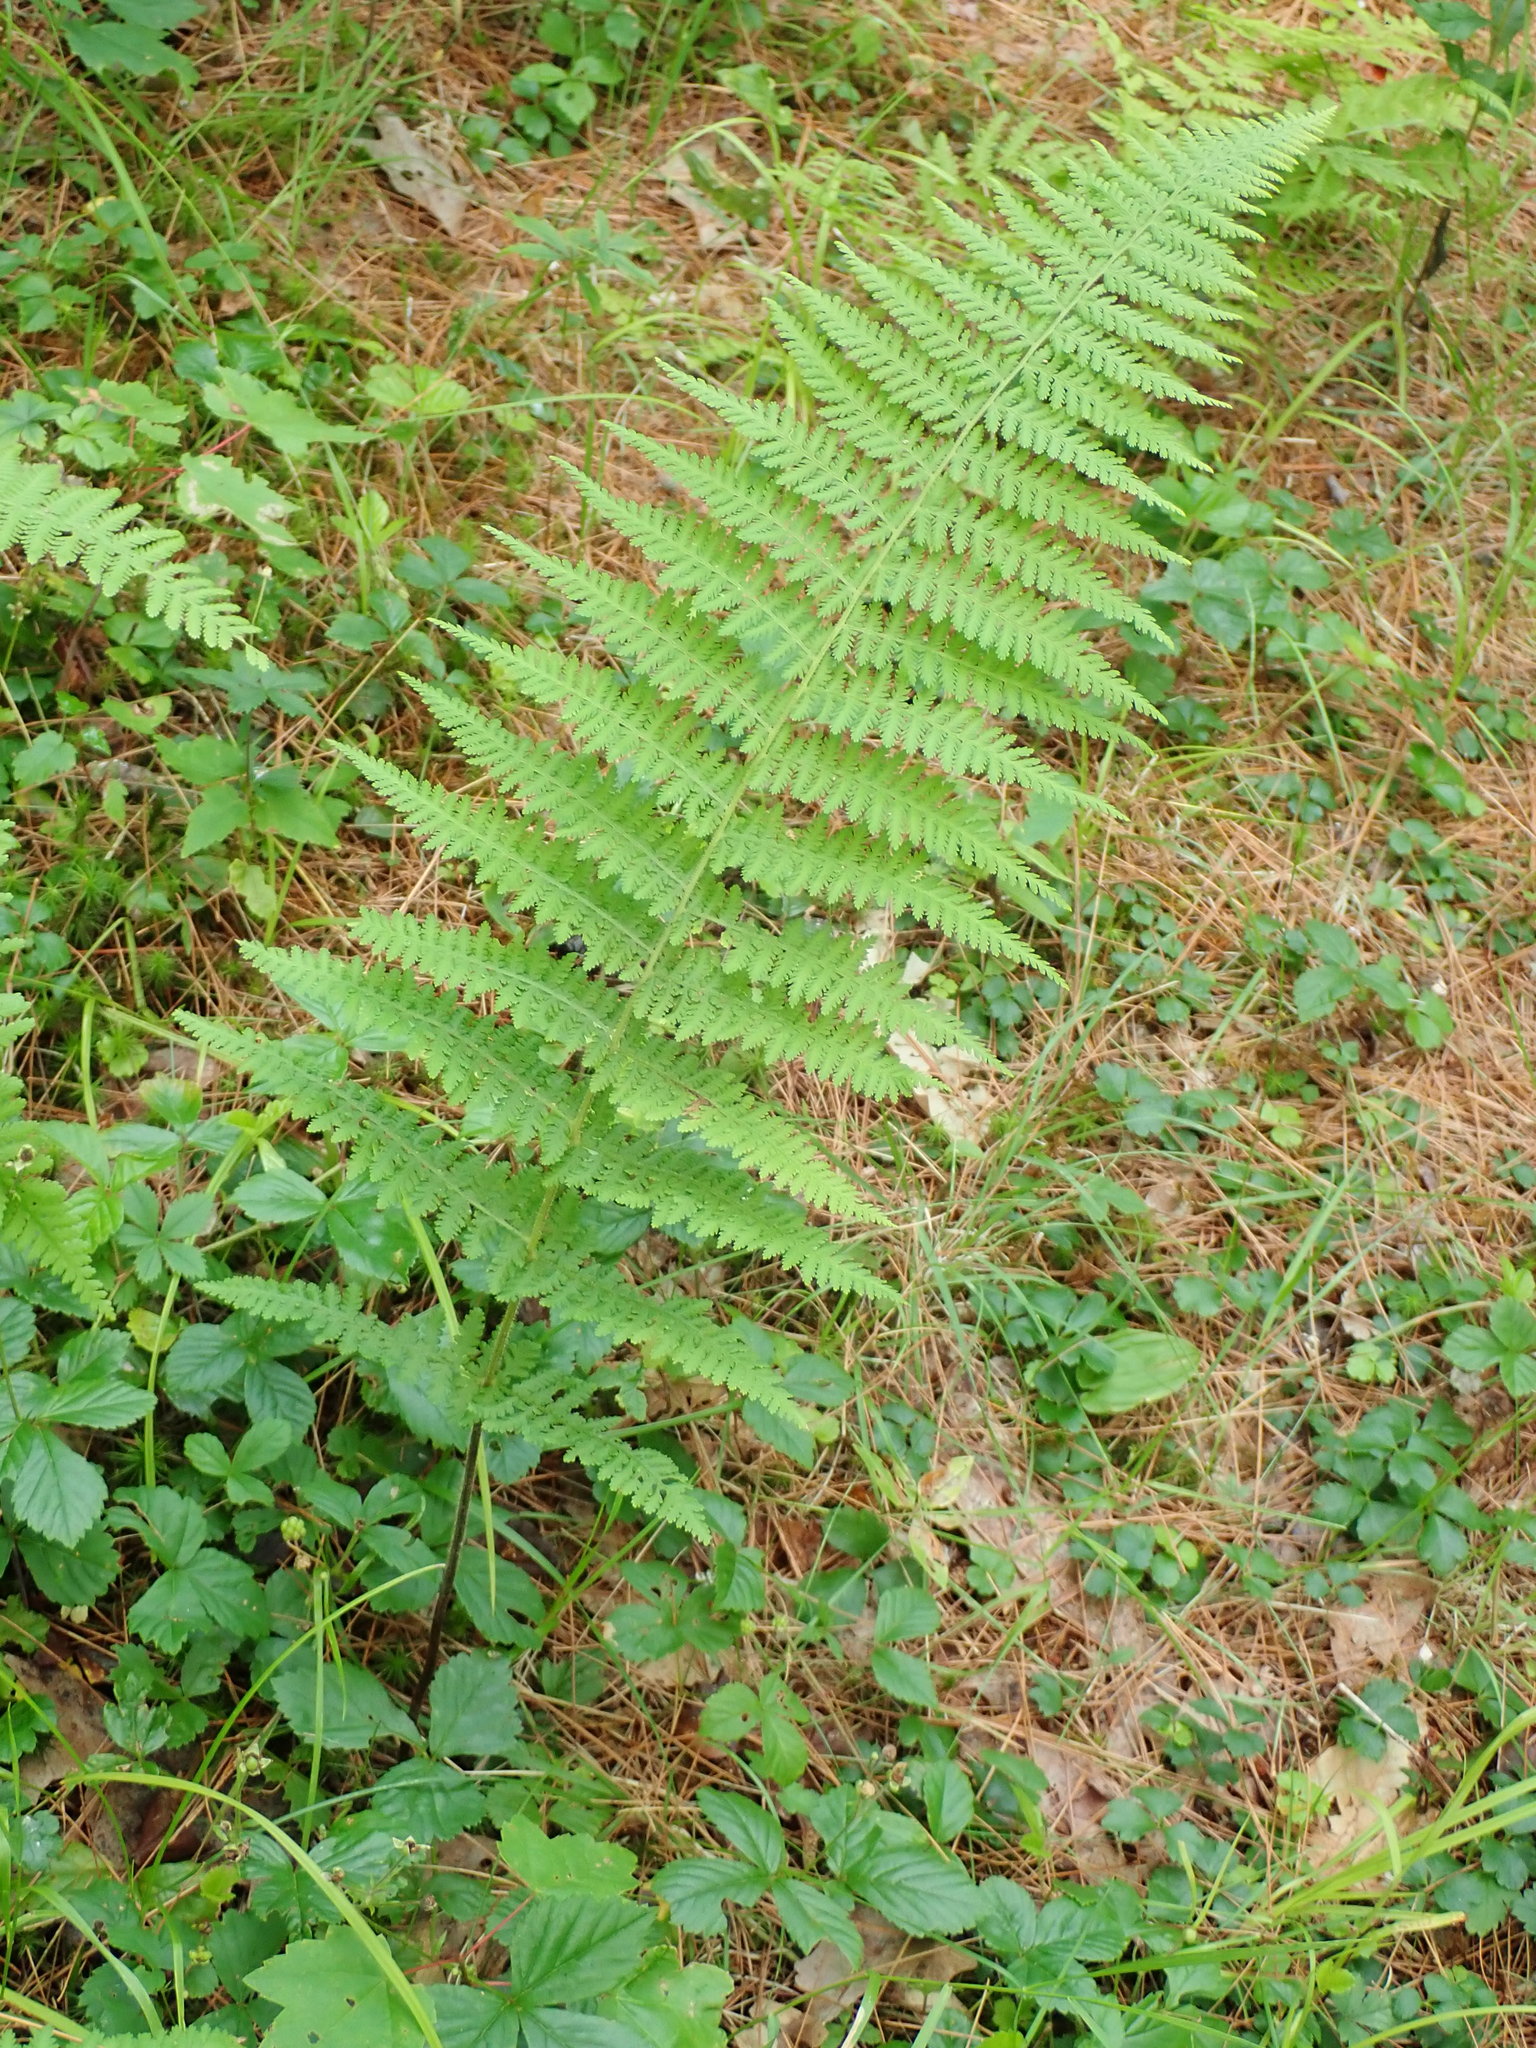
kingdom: Plantae
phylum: Tracheophyta
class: Polypodiopsida
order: Polypodiales
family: Dennstaedtiaceae
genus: Sitobolium
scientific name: Sitobolium punctilobum
